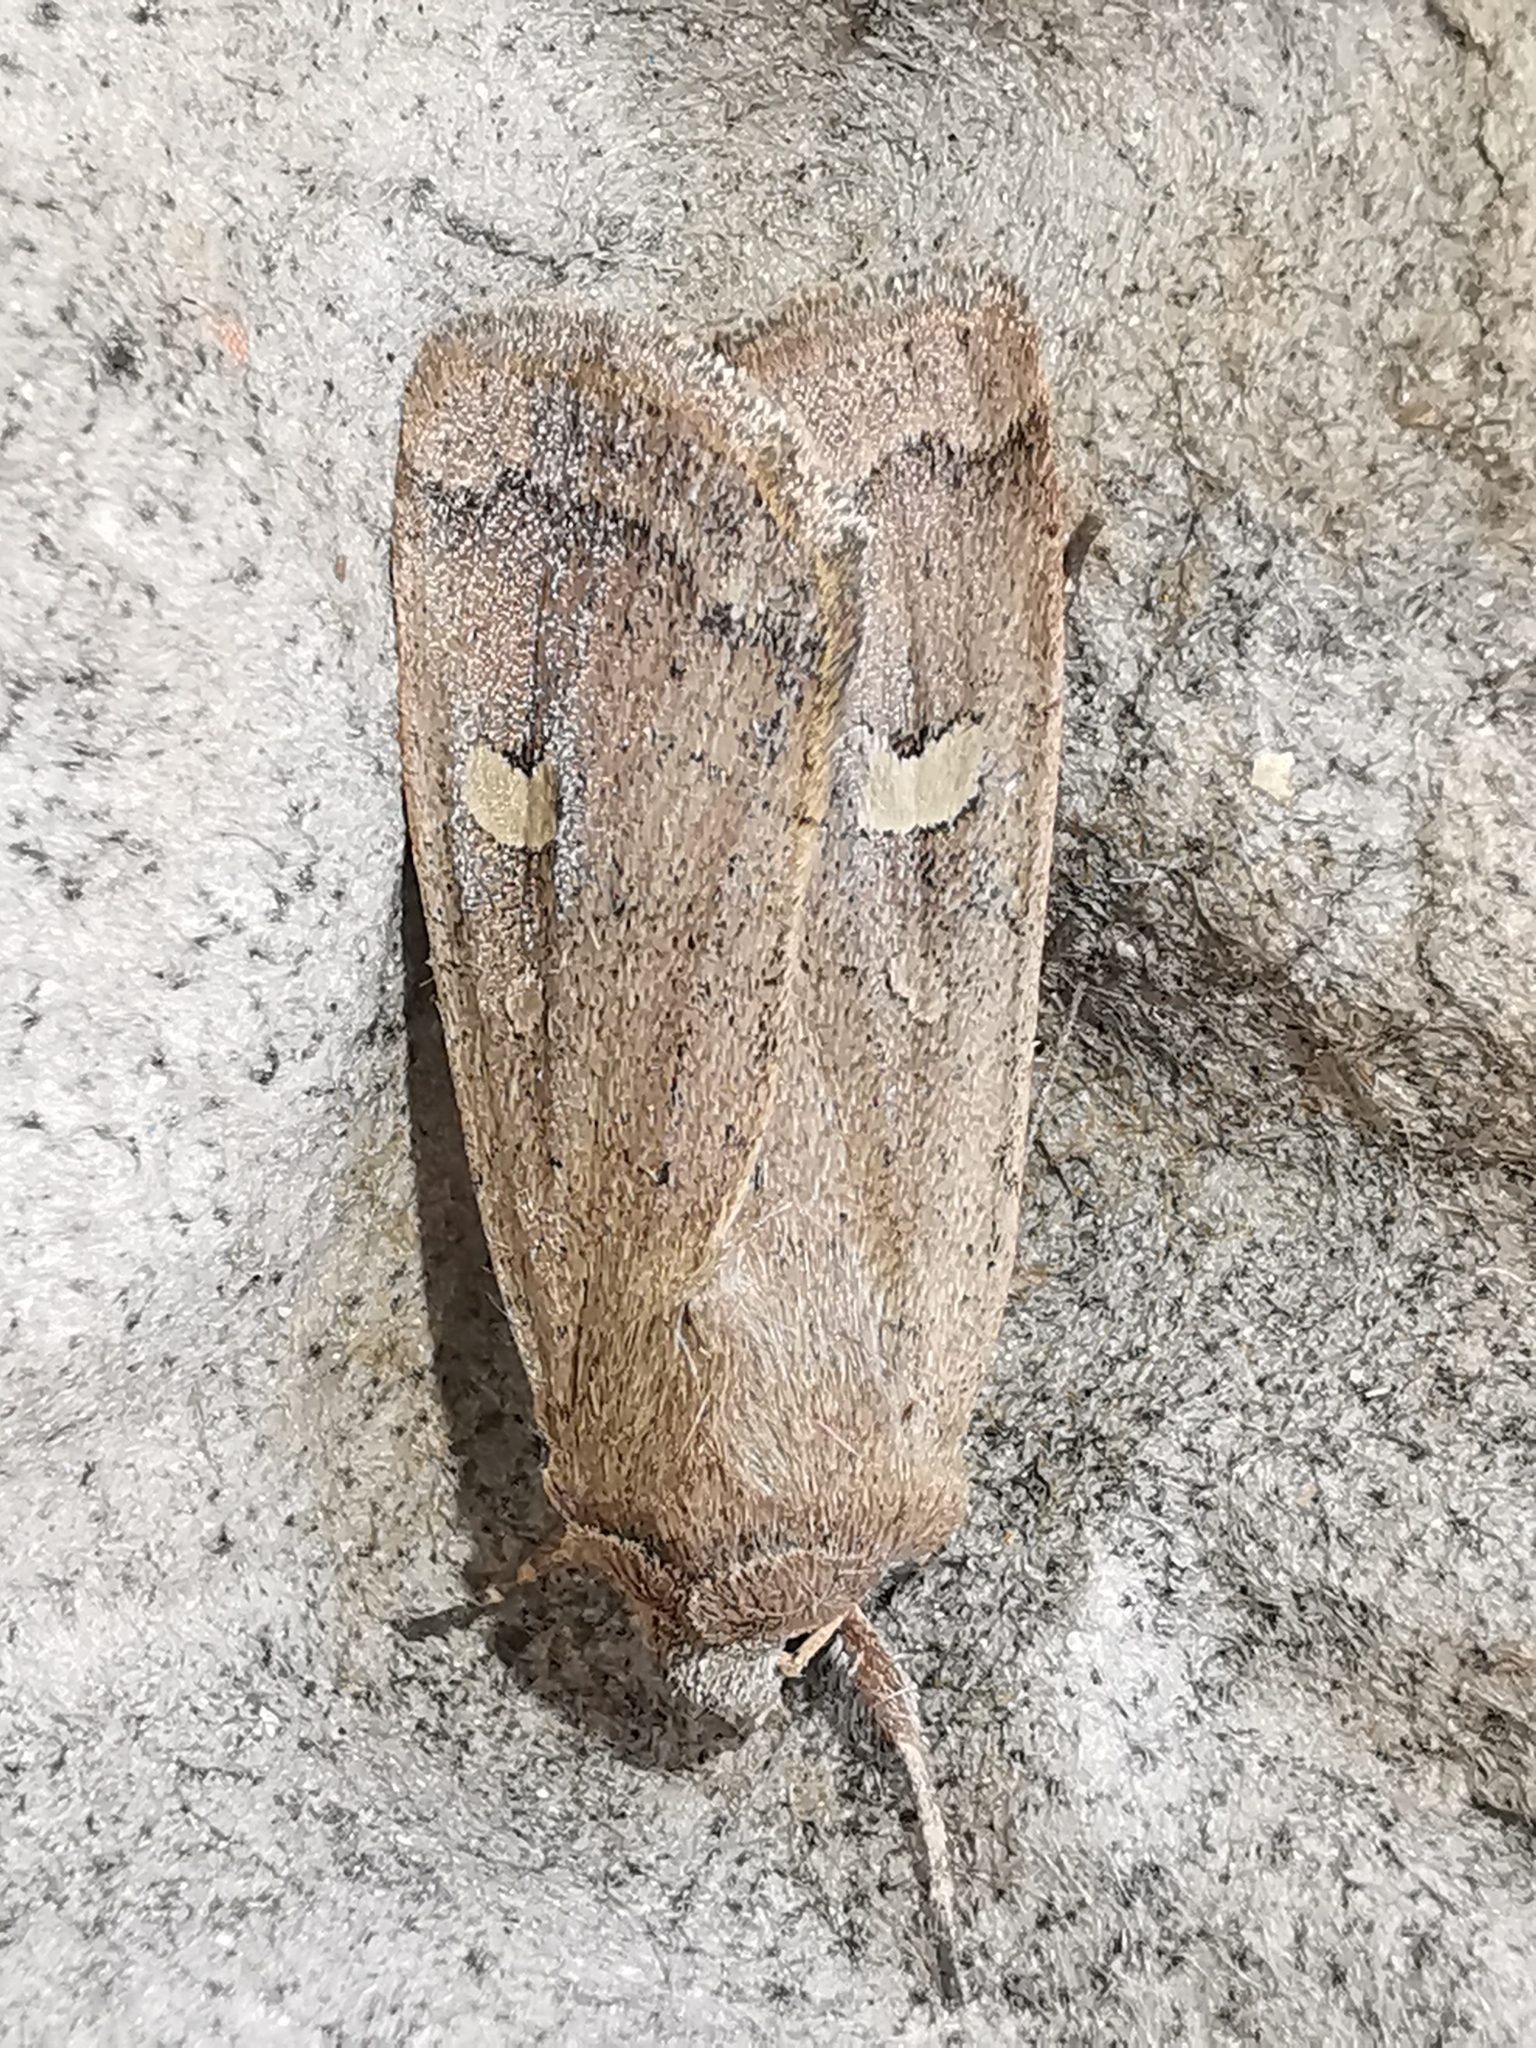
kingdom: Animalia
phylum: Arthropoda
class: Insecta
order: Lepidoptera
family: Noctuidae
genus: Xestia
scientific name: Xestia xanthographa
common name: Square-spot rustic
